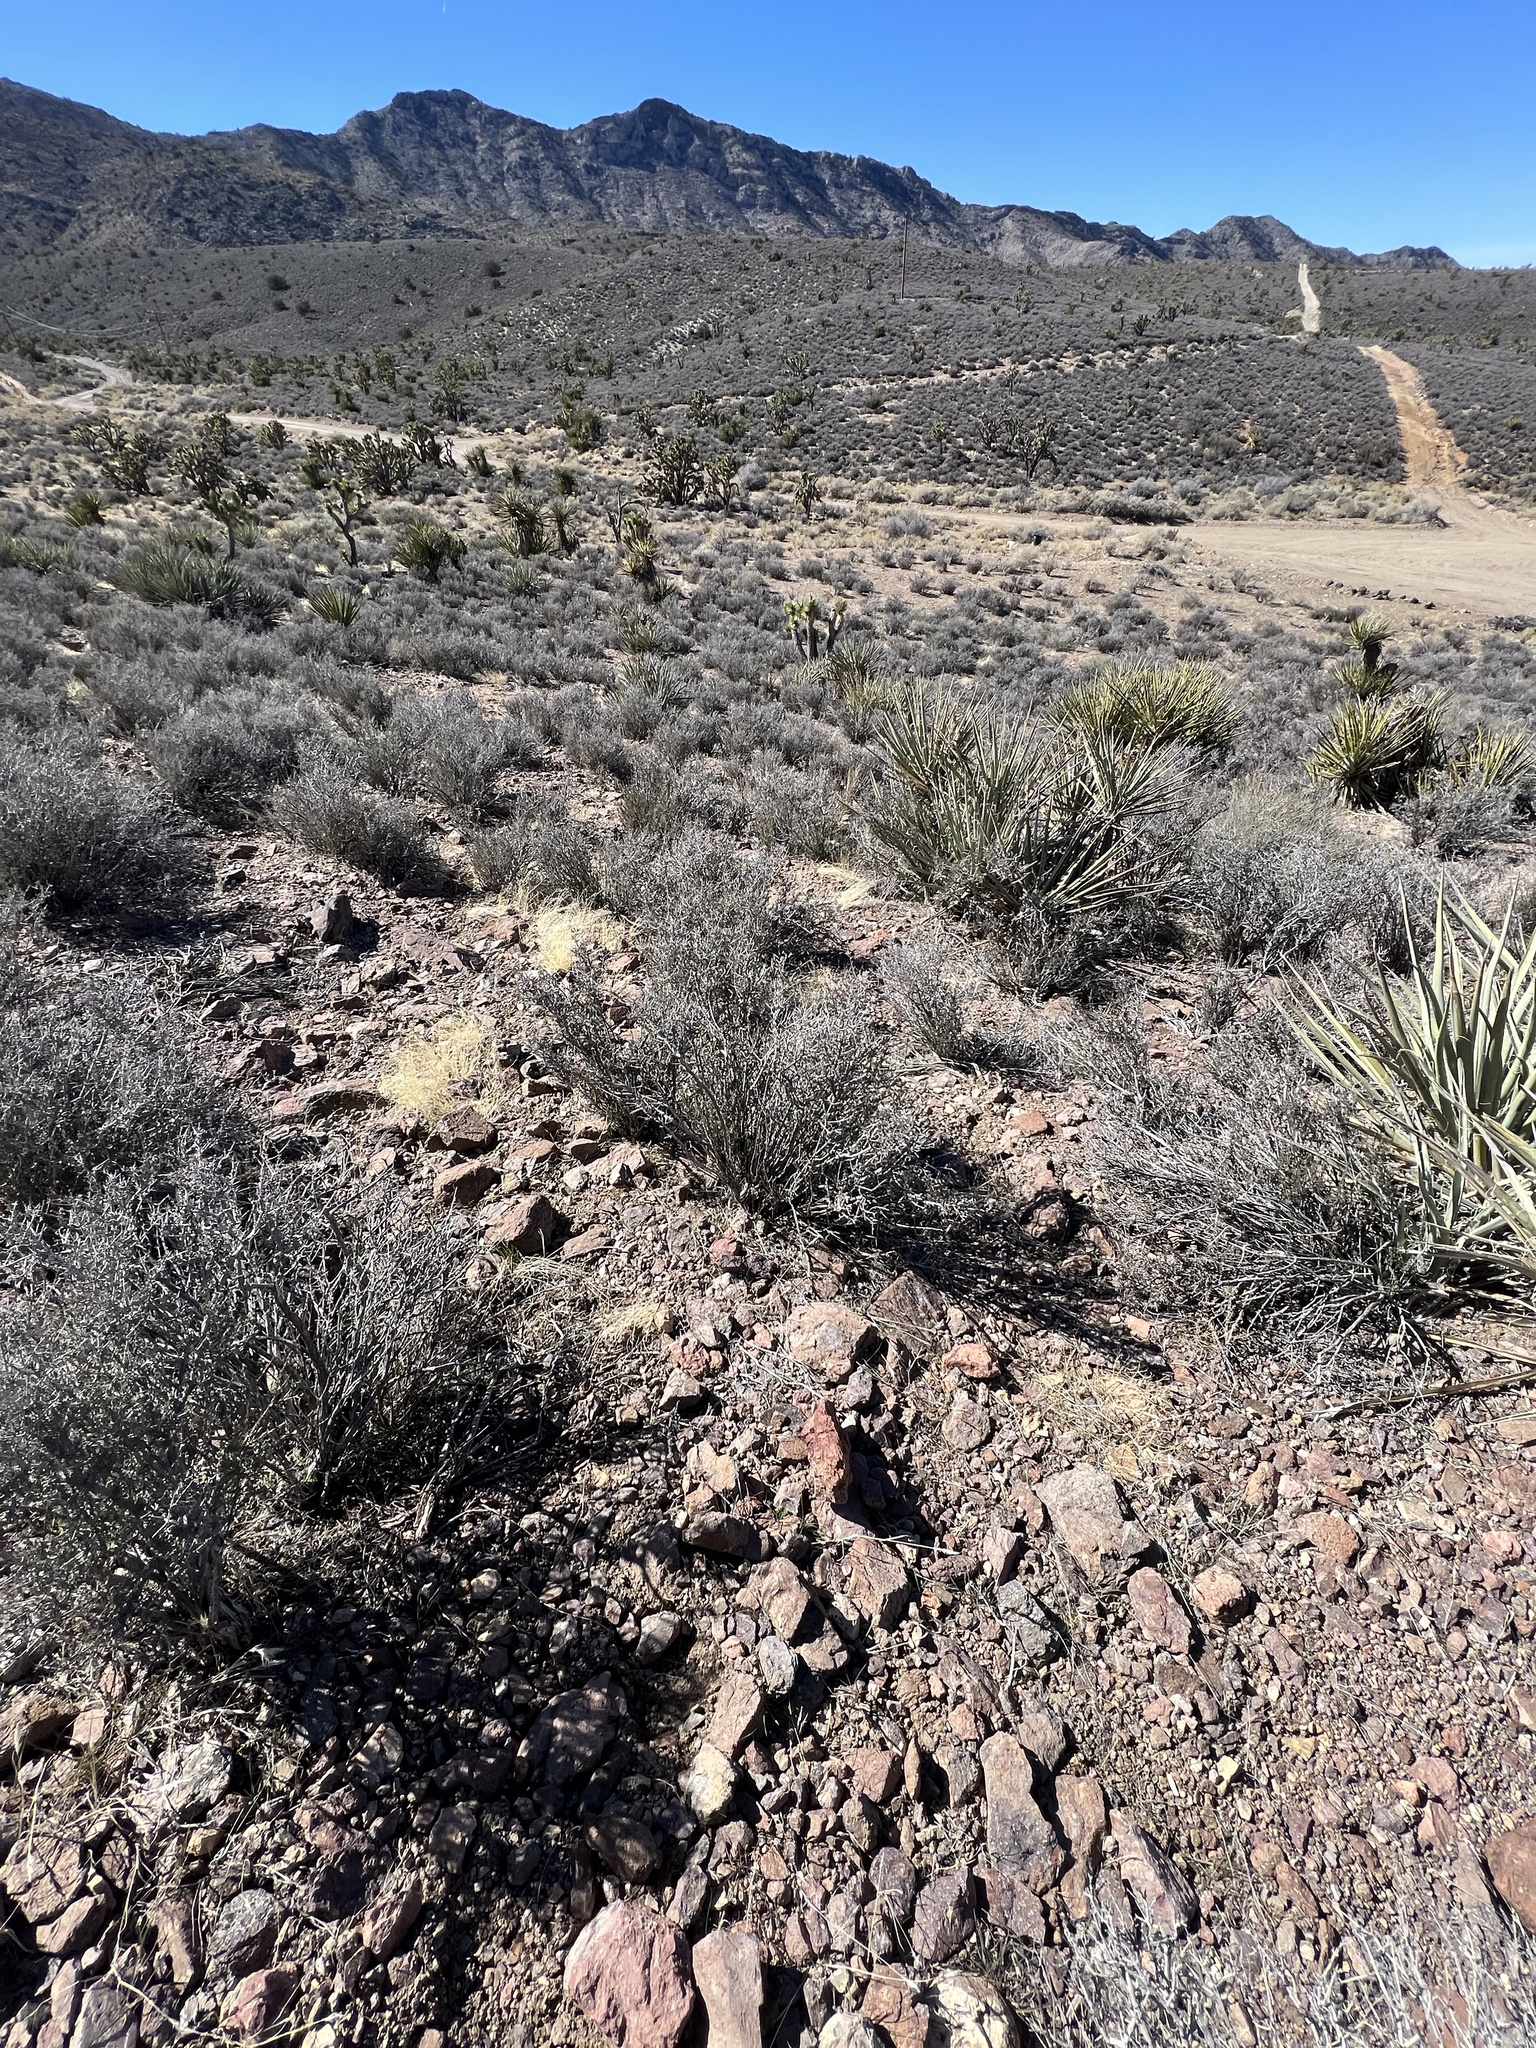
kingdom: Plantae
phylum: Tracheophyta
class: Magnoliopsida
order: Rosales
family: Rosaceae
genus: Coleogyne
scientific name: Coleogyne ramosissima
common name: Blackbrush
